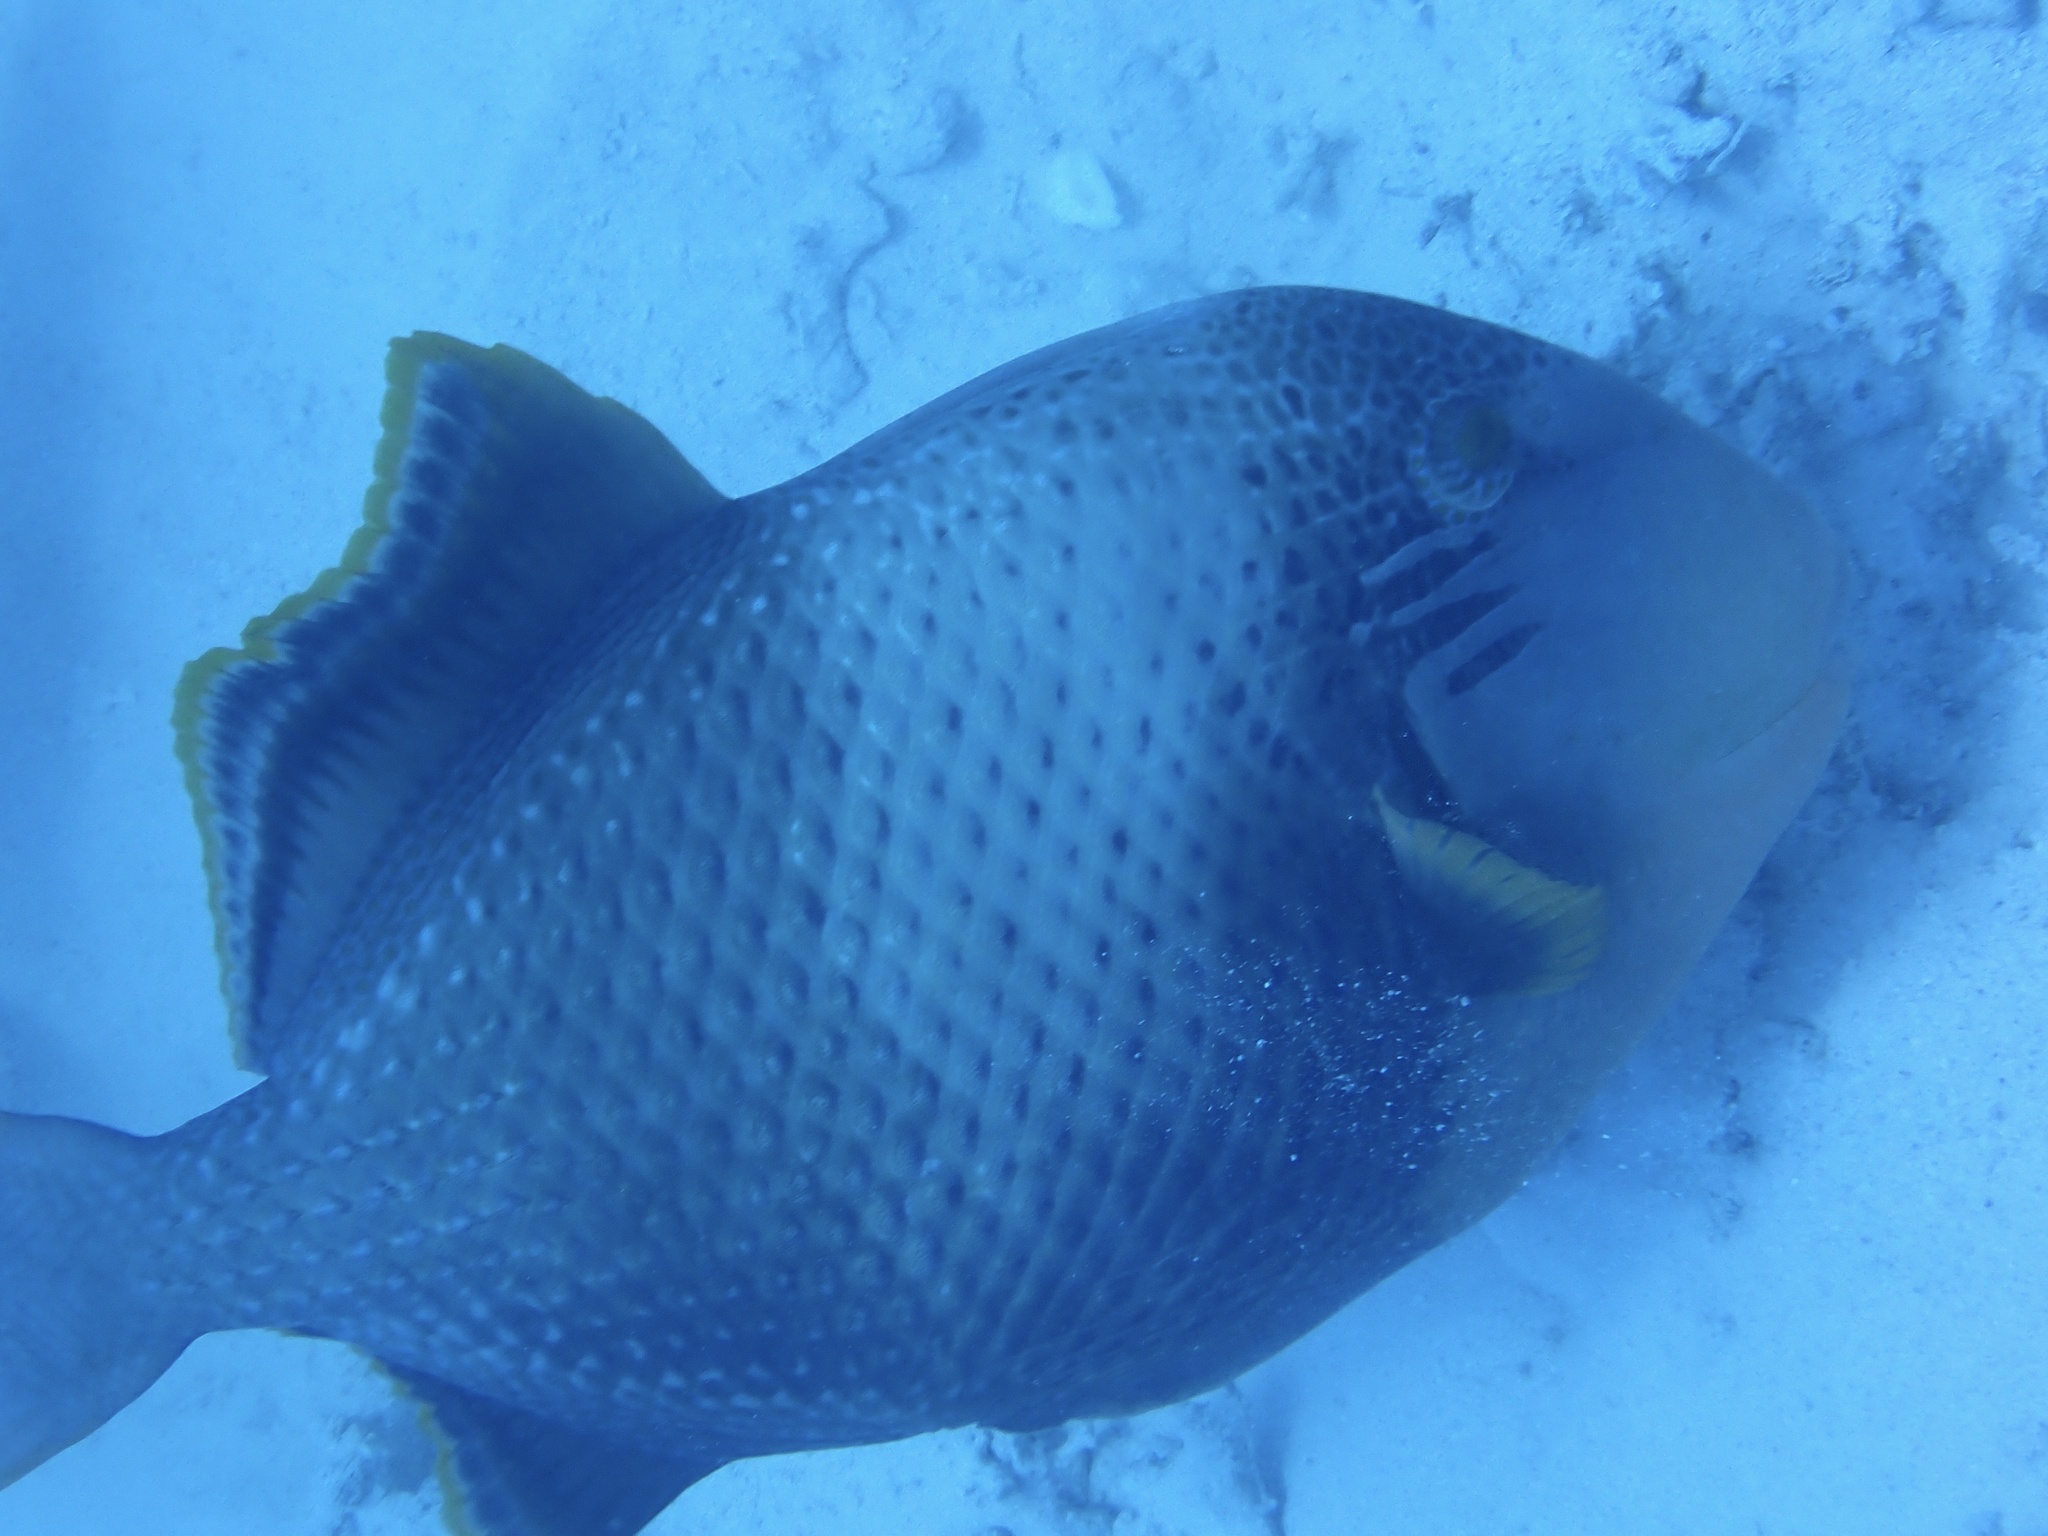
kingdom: Animalia
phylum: Chordata
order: Tetraodontiformes
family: Balistidae
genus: Pseudobalistes
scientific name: Pseudobalistes flavimarginatus
